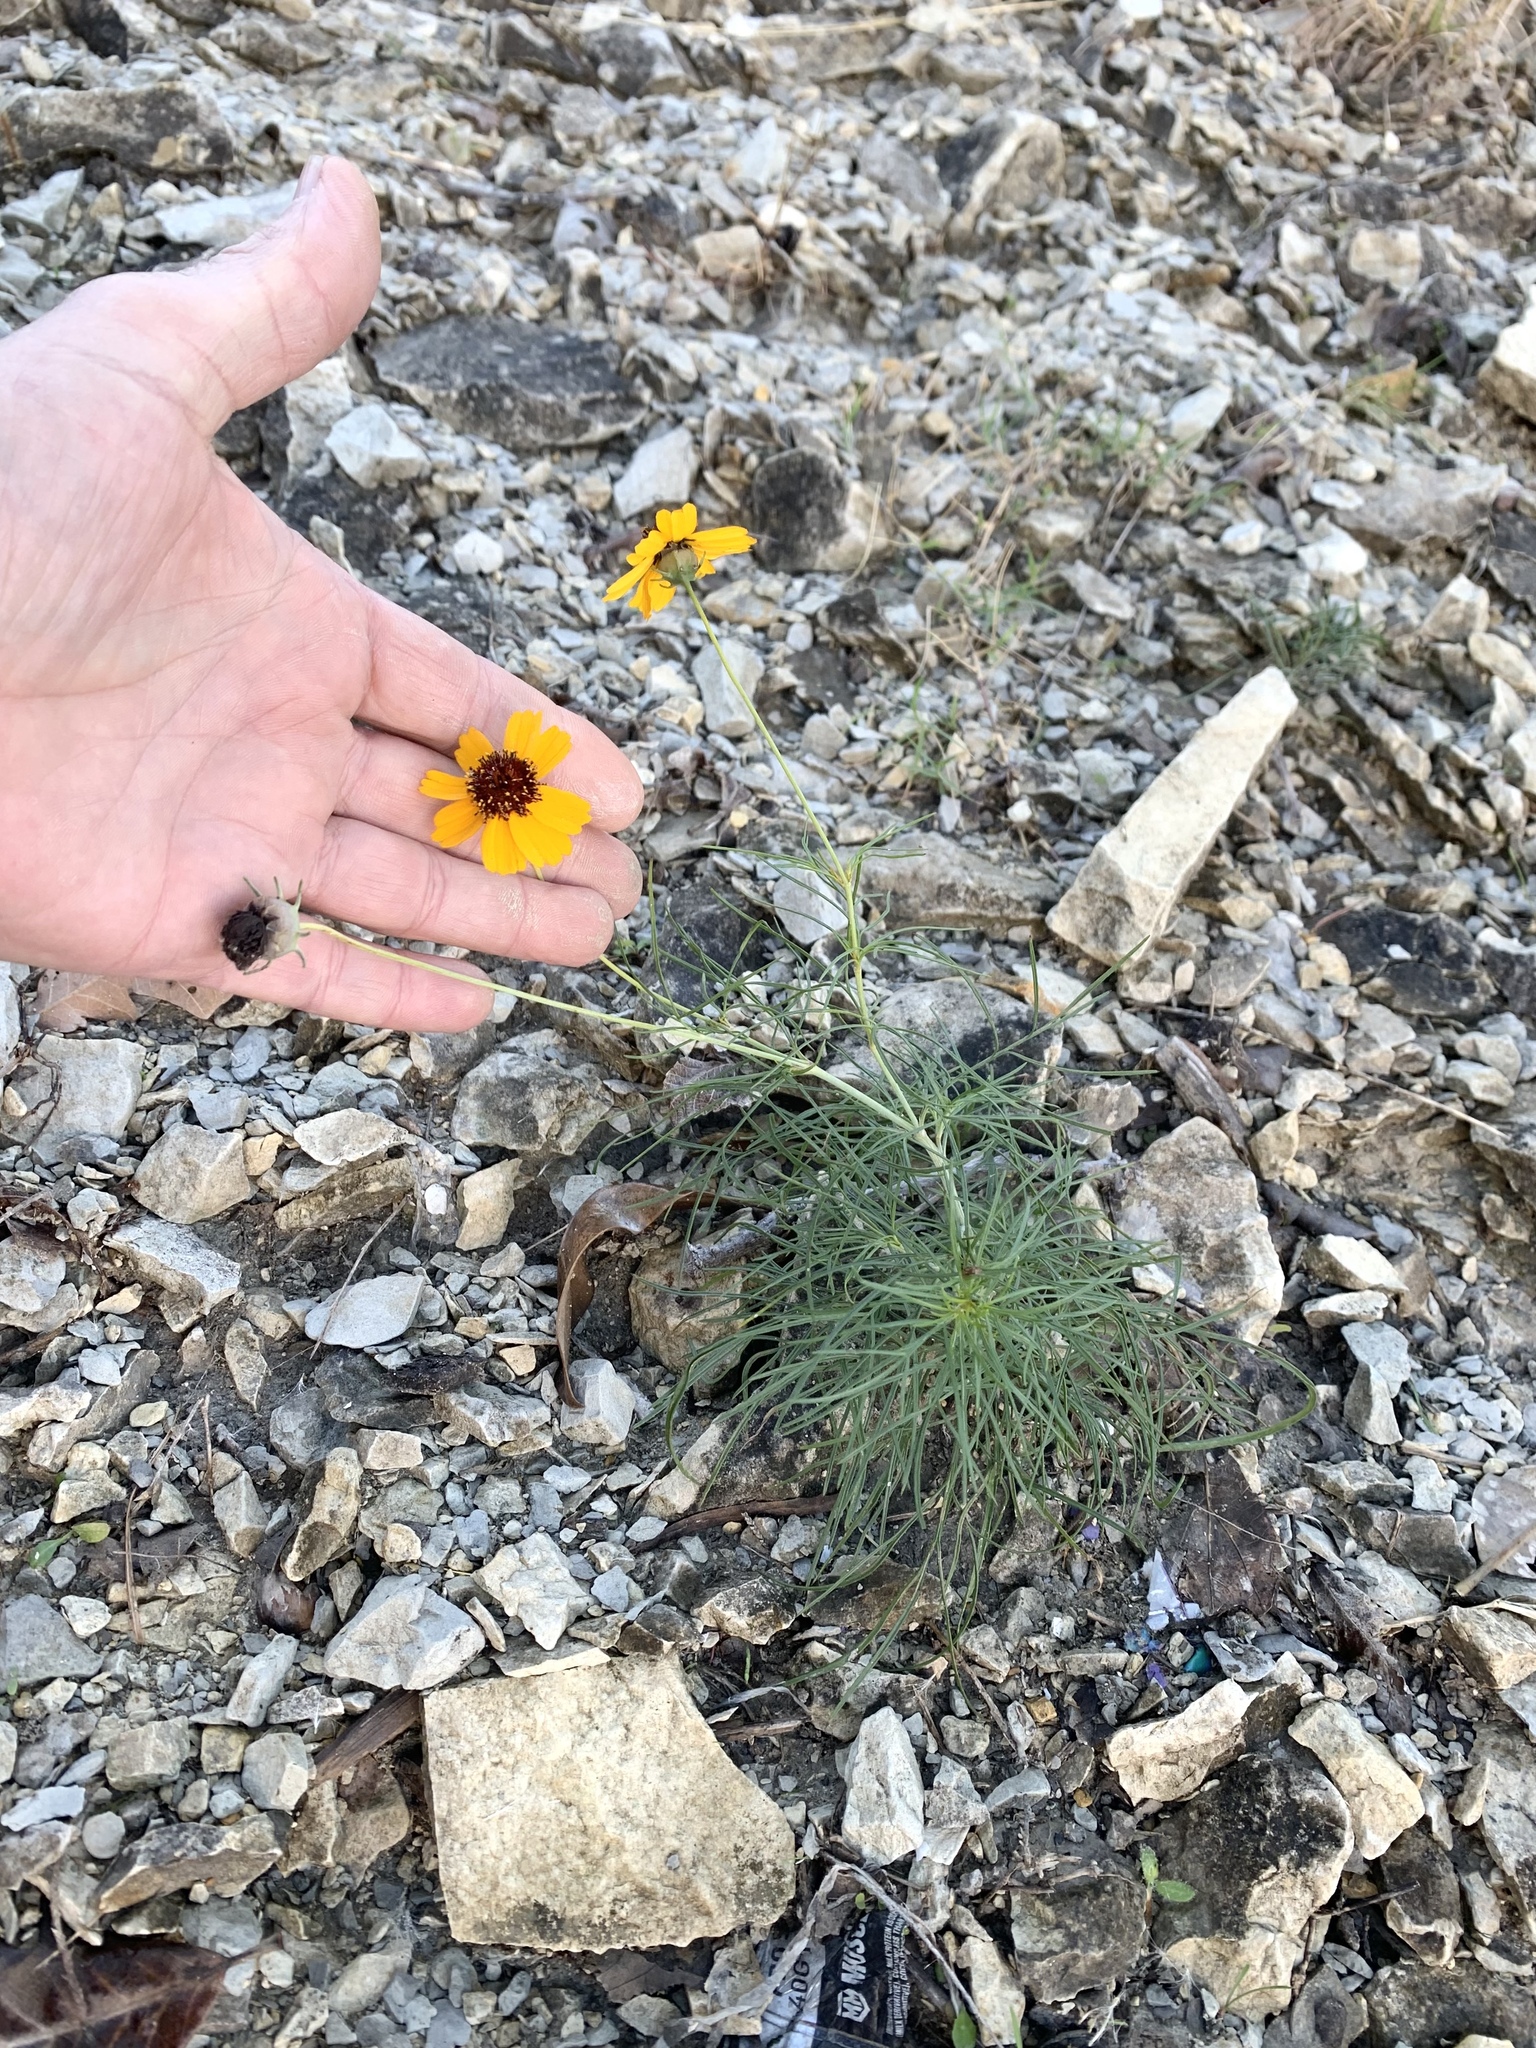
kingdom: Plantae
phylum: Tracheophyta
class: Magnoliopsida
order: Asterales
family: Asteraceae
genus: Thelesperma
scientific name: Thelesperma filifolium
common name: Stiff greenthread
